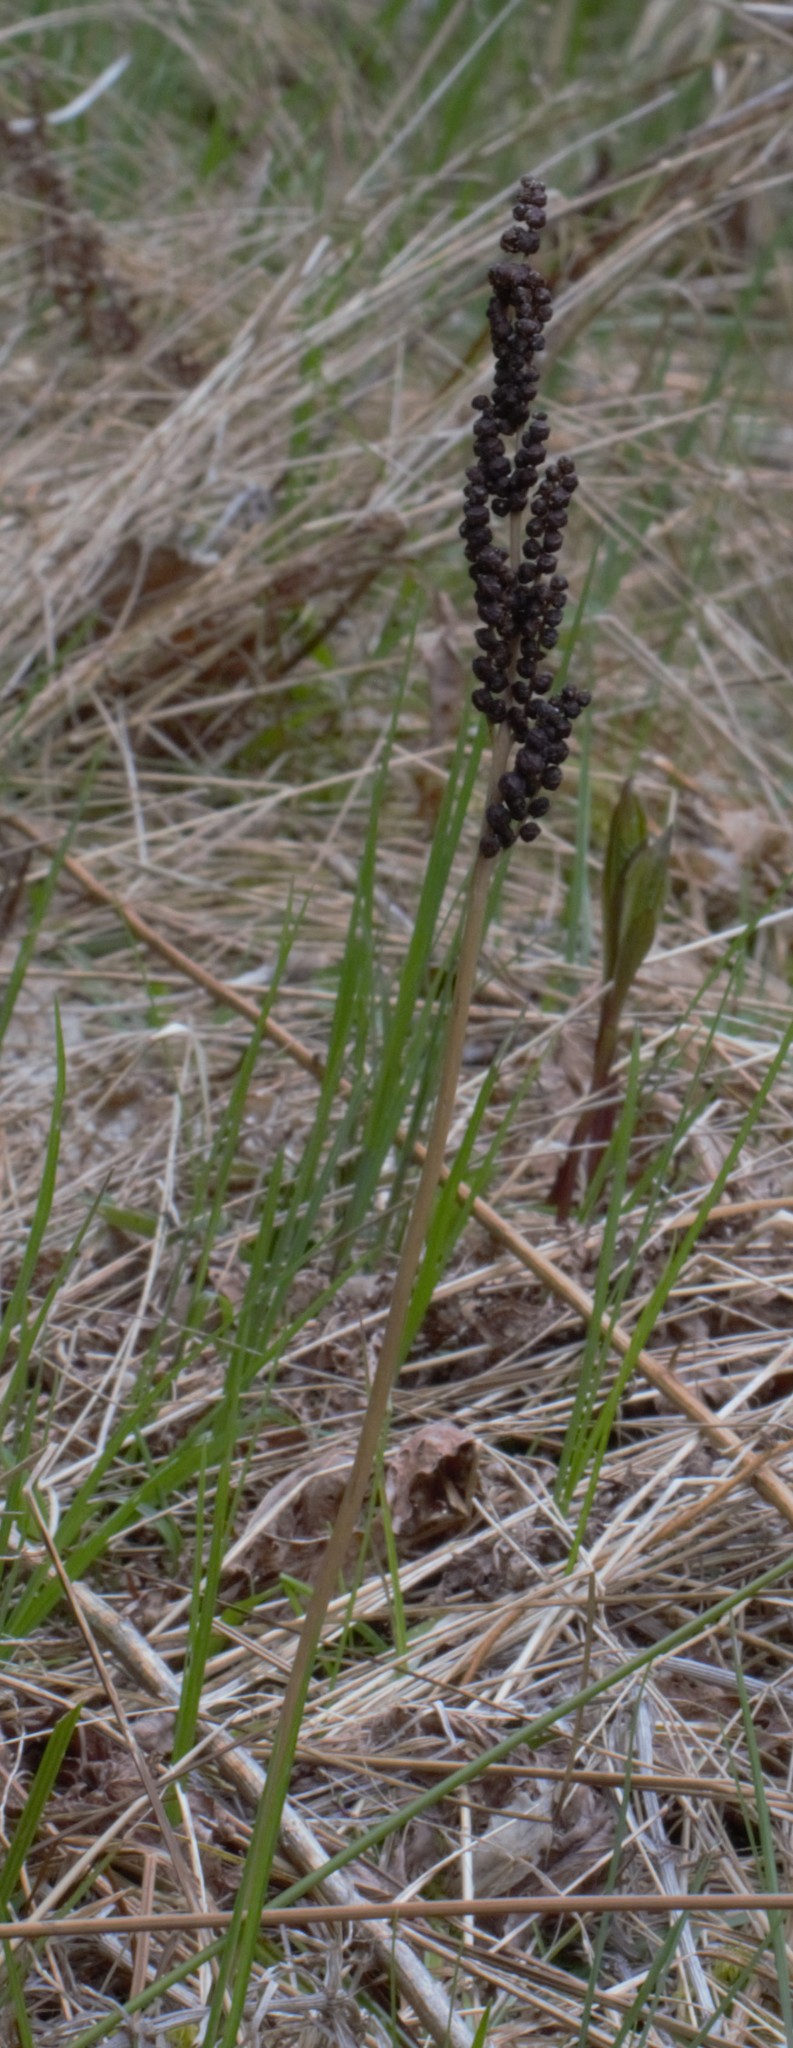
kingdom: Plantae
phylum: Tracheophyta
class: Polypodiopsida
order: Polypodiales
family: Onocleaceae
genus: Onoclea
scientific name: Onoclea sensibilis
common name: Sensitive fern
